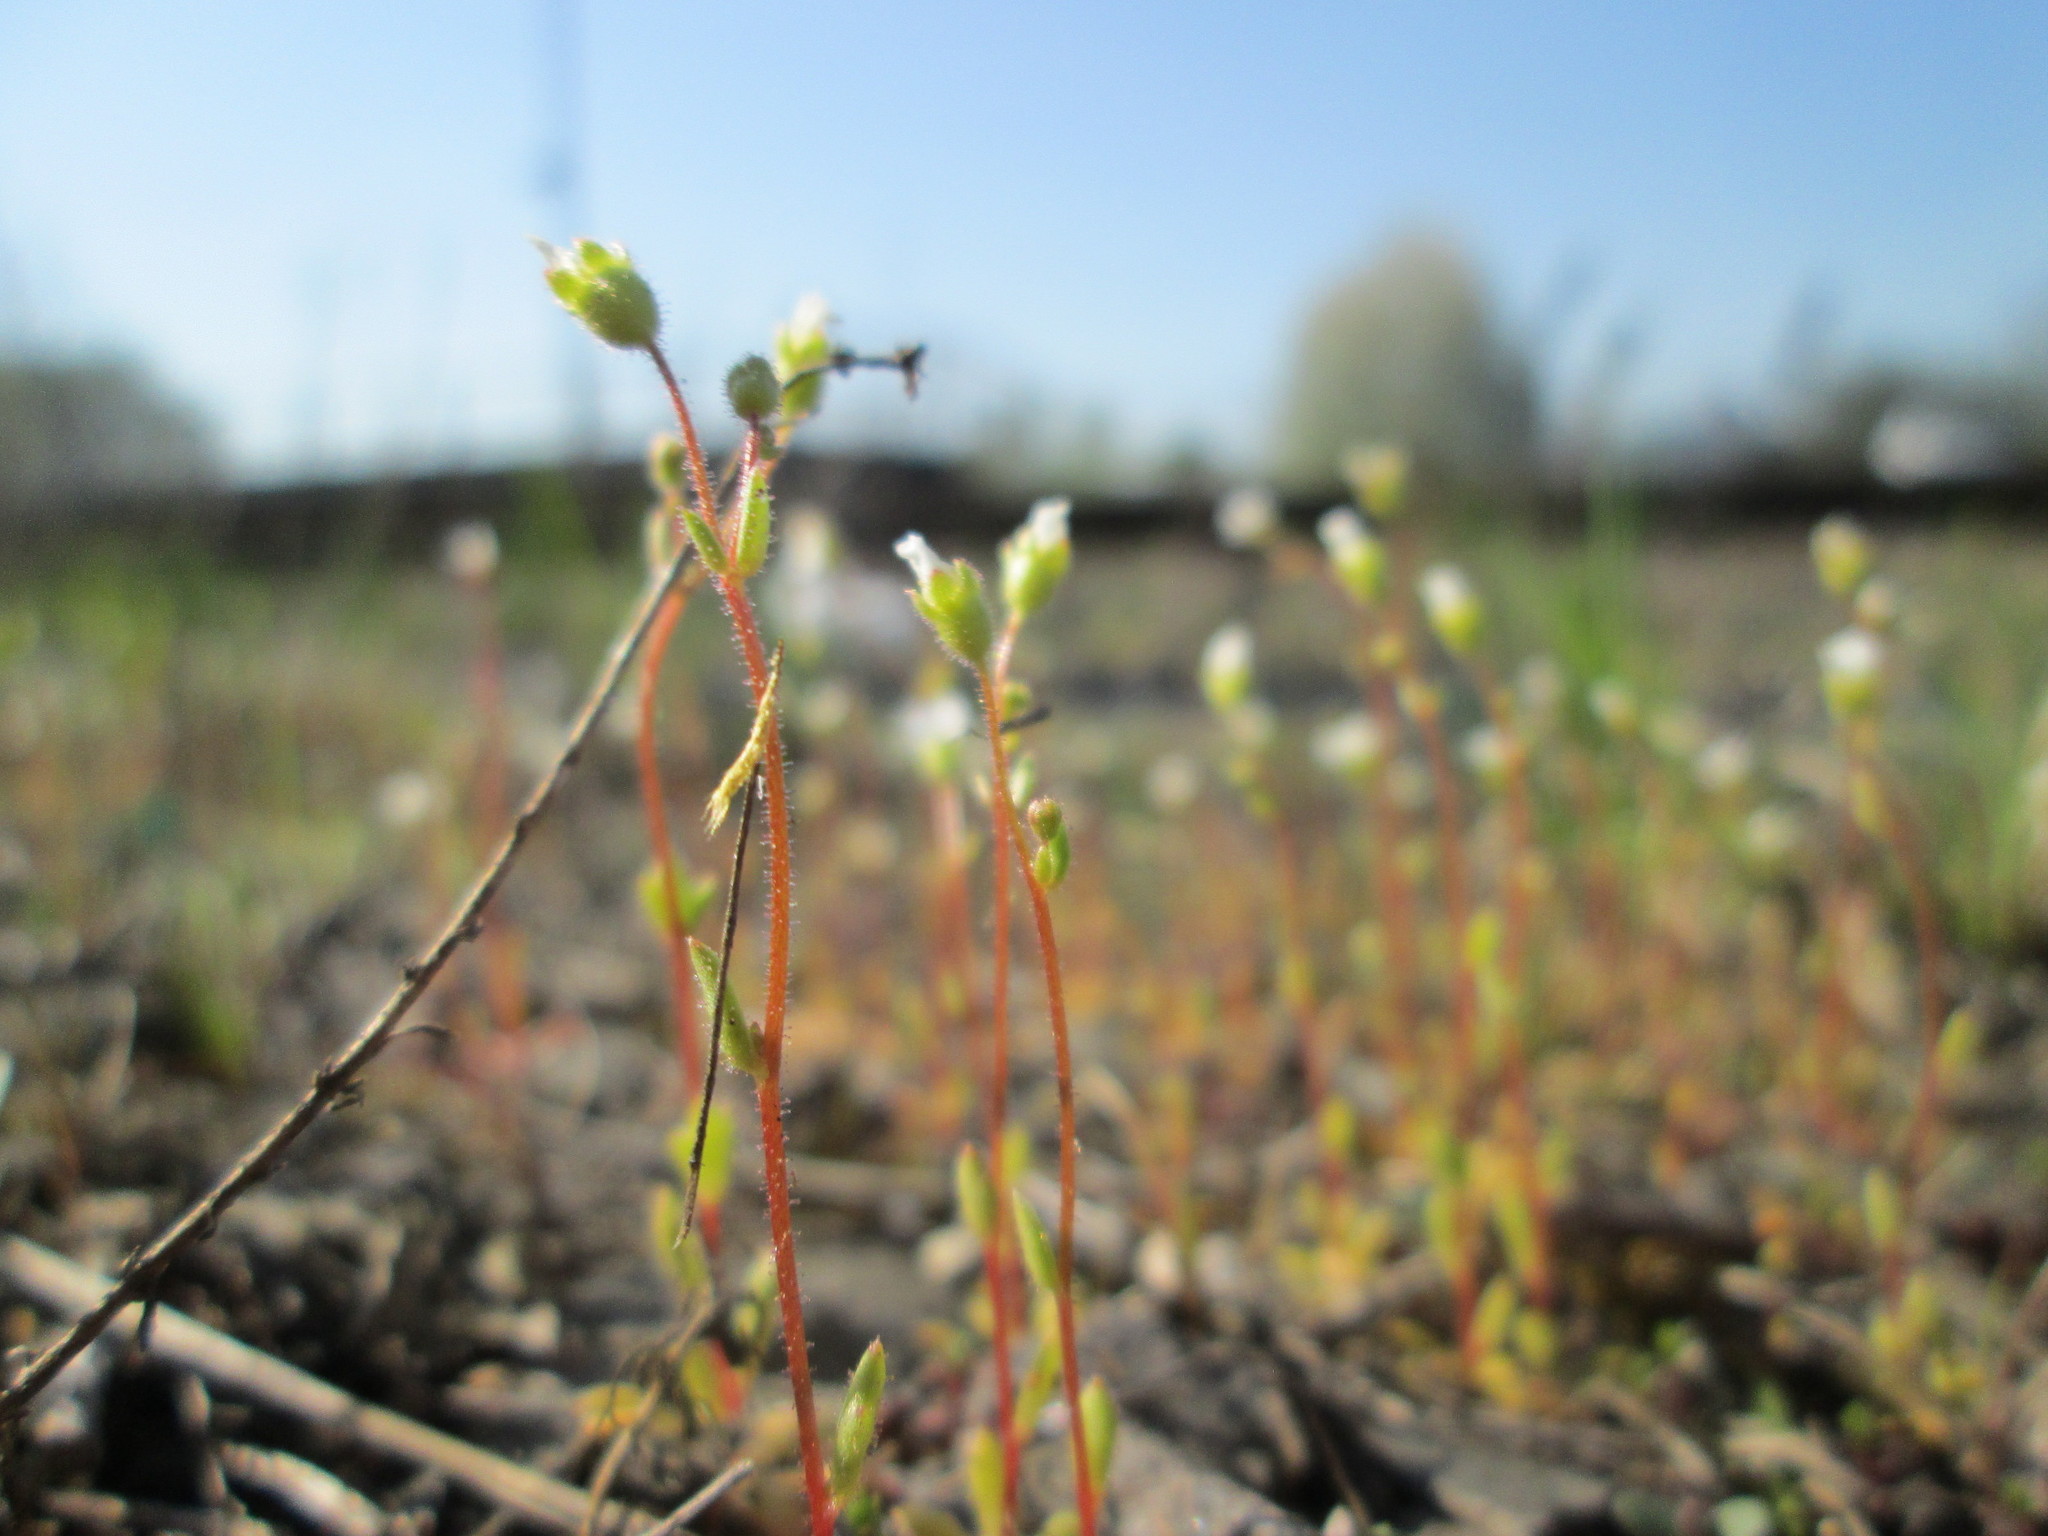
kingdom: Plantae
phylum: Tracheophyta
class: Magnoliopsida
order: Saxifragales
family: Saxifragaceae
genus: Saxifraga
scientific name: Saxifraga tridactylites
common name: Rue-leaved saxifrage
